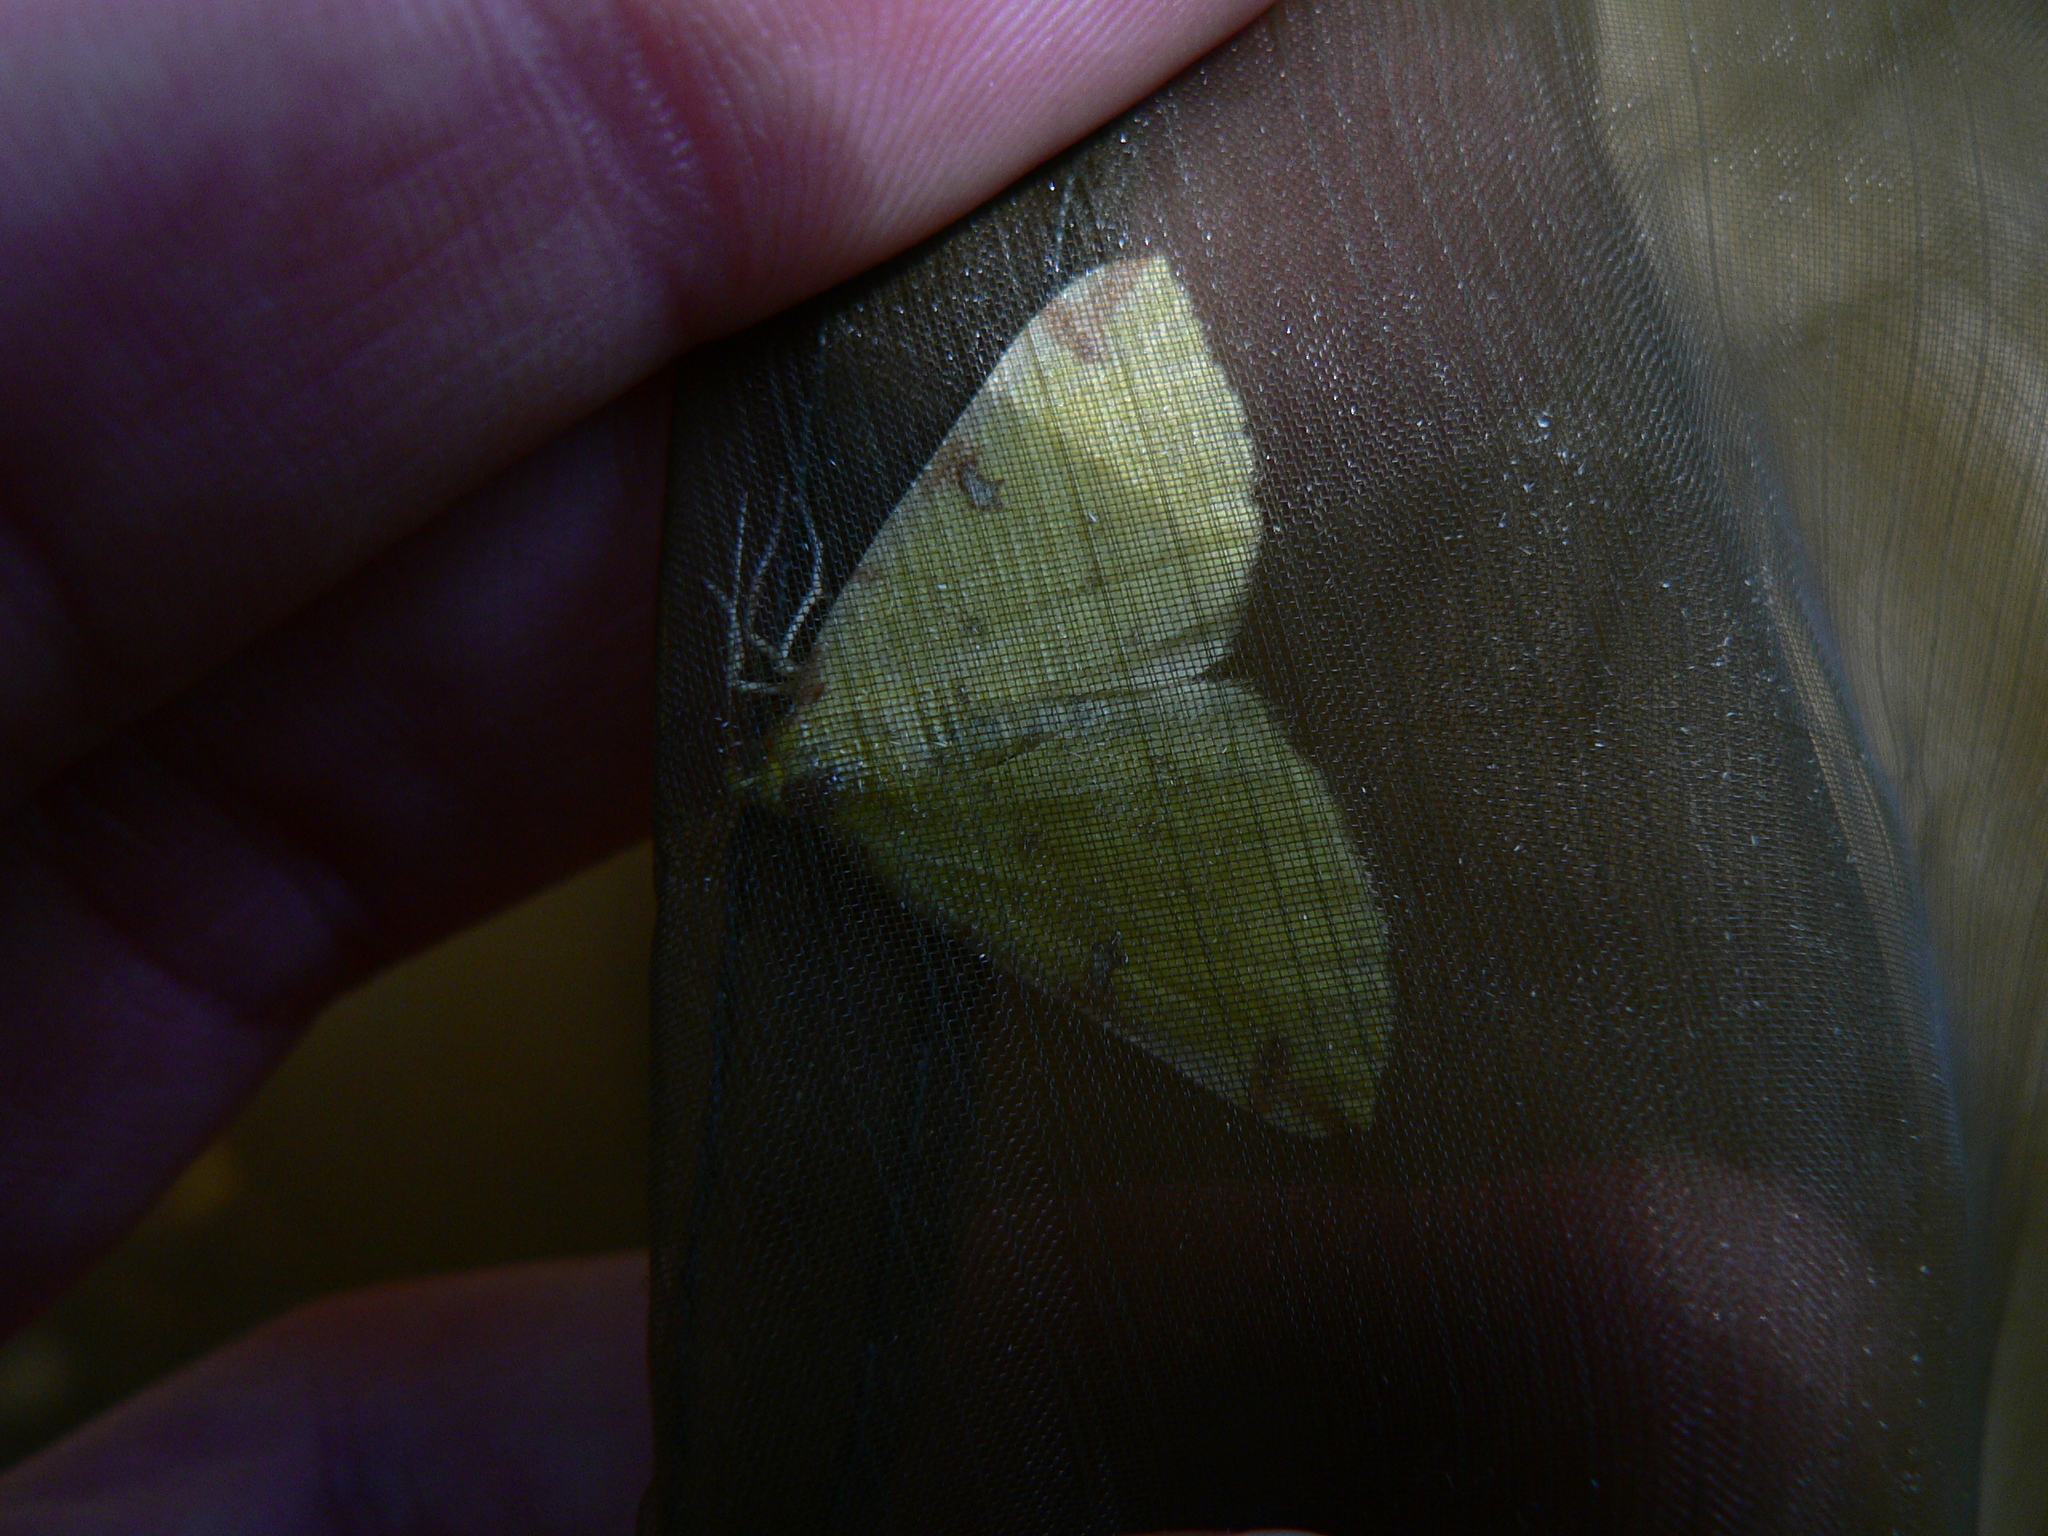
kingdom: Animalia
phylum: Arthropoda
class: Insecta
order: Lepidoptera
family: Geometridae
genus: Opisthograptis
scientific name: Opisthograptis luteolata
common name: Brimstone moth
